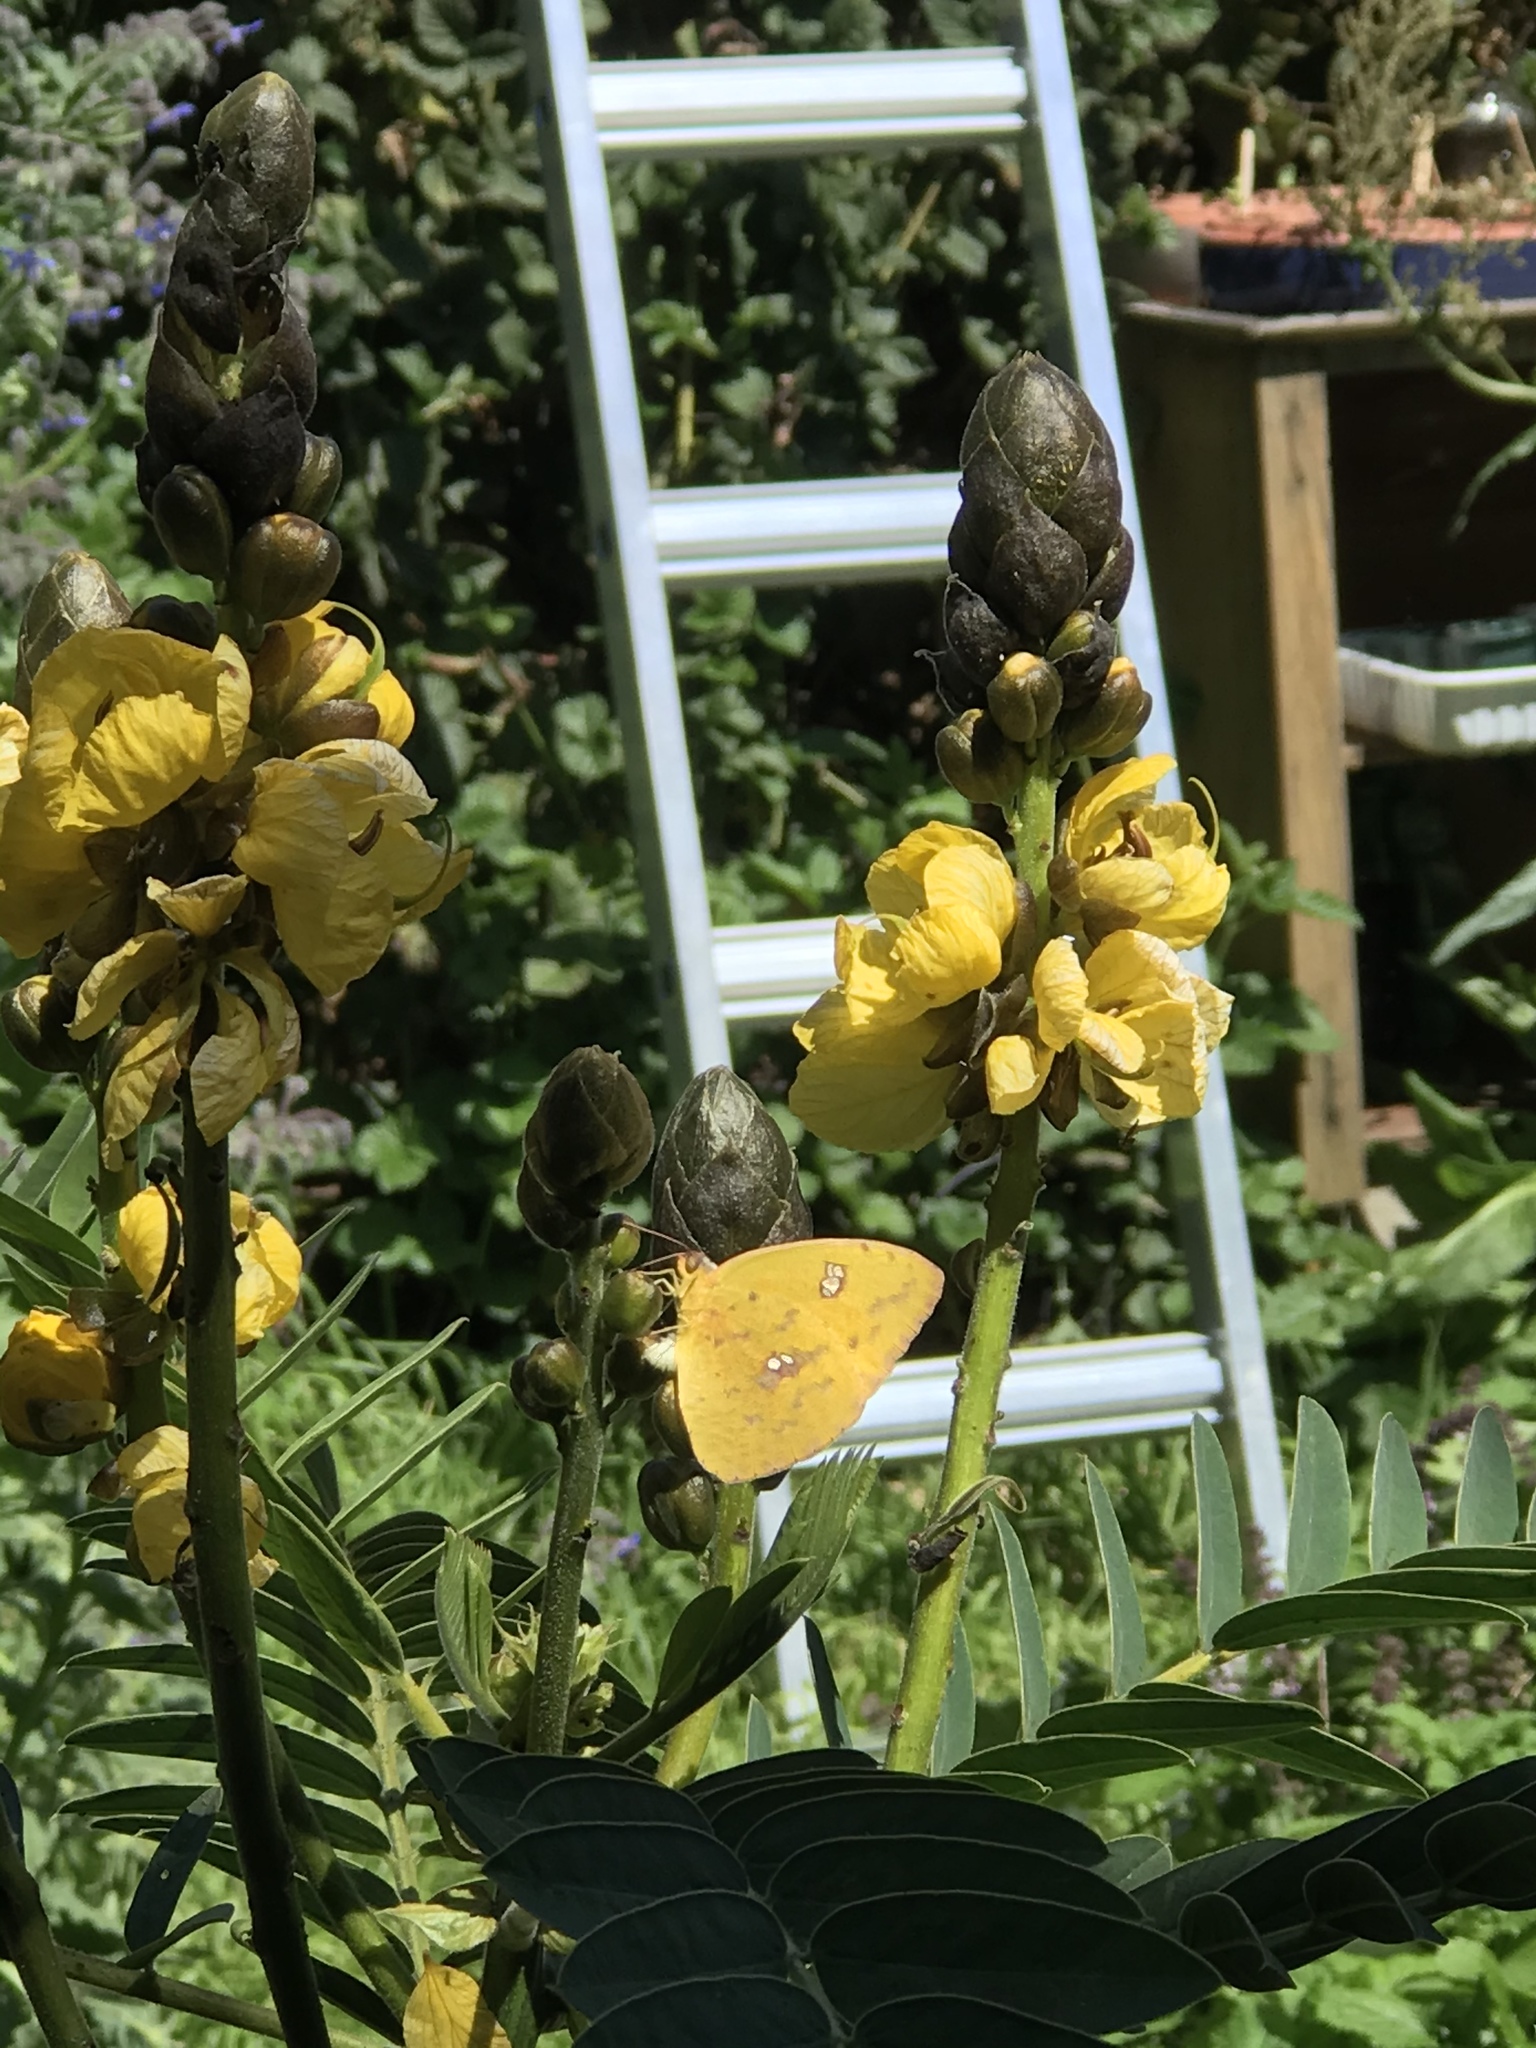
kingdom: Animalia
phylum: Arthropoda
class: Insecta
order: Lepidoptera
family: Pieridae
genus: Phoebis
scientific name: Phoebis sennae
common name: Cloudless sulphur
